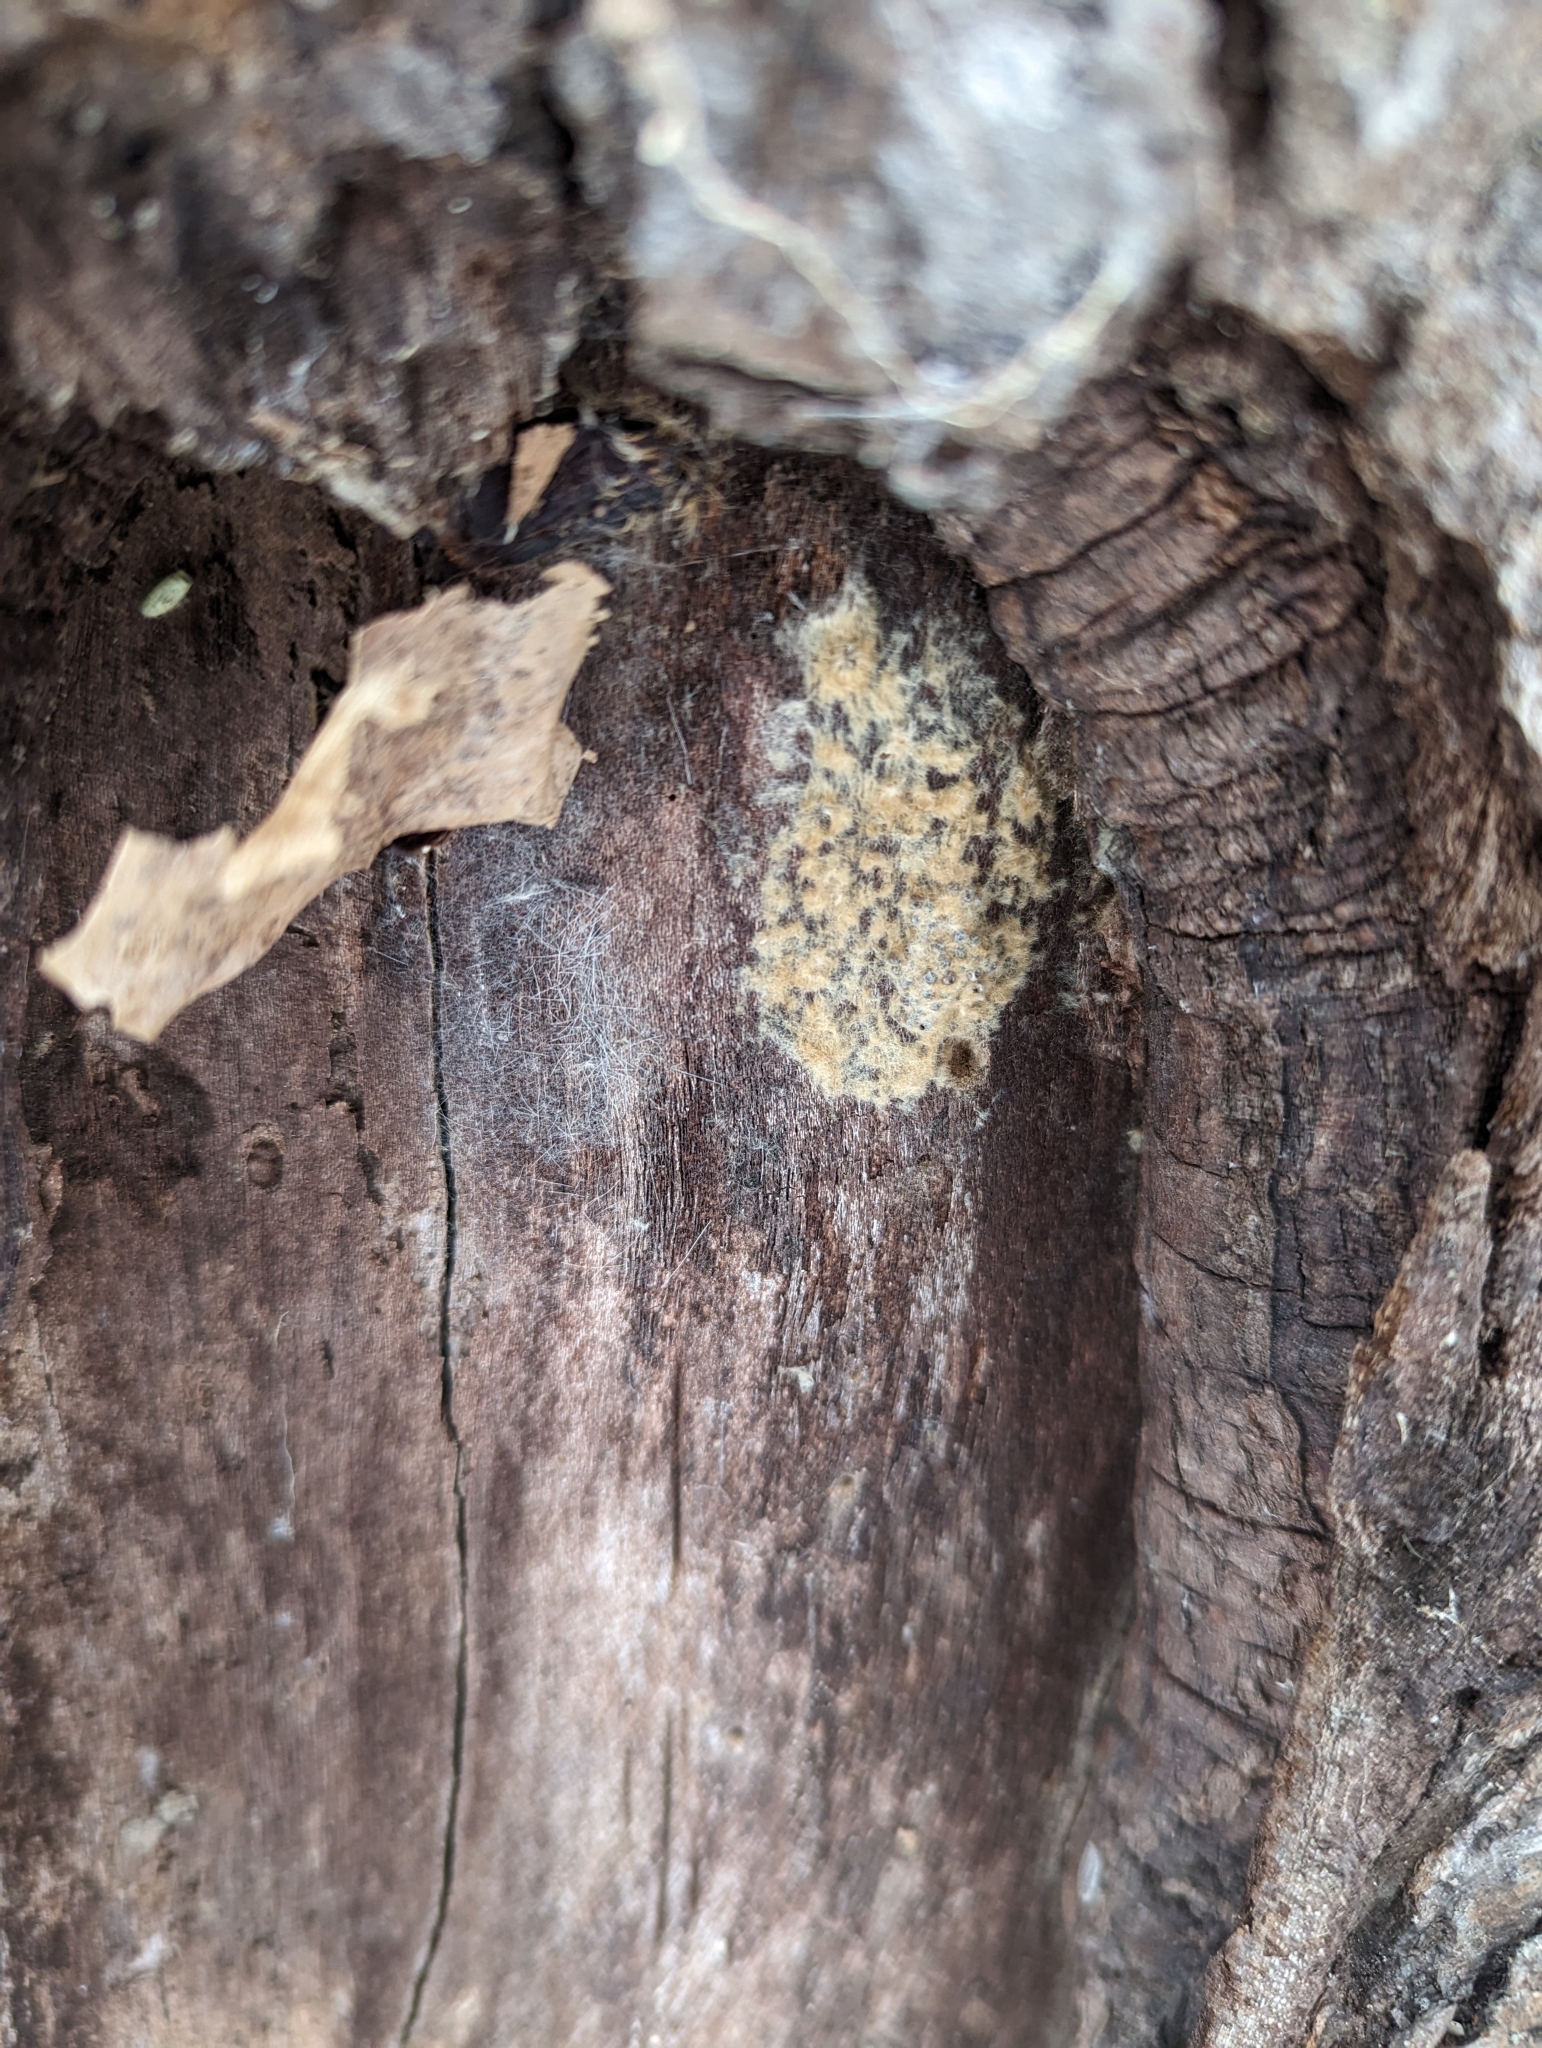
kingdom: Animalia
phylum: Arthropoda
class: Insecta
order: Lepidoptera
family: Erebidae
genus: Lymantria
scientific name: Lymantria dispar
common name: Gypsy moth
